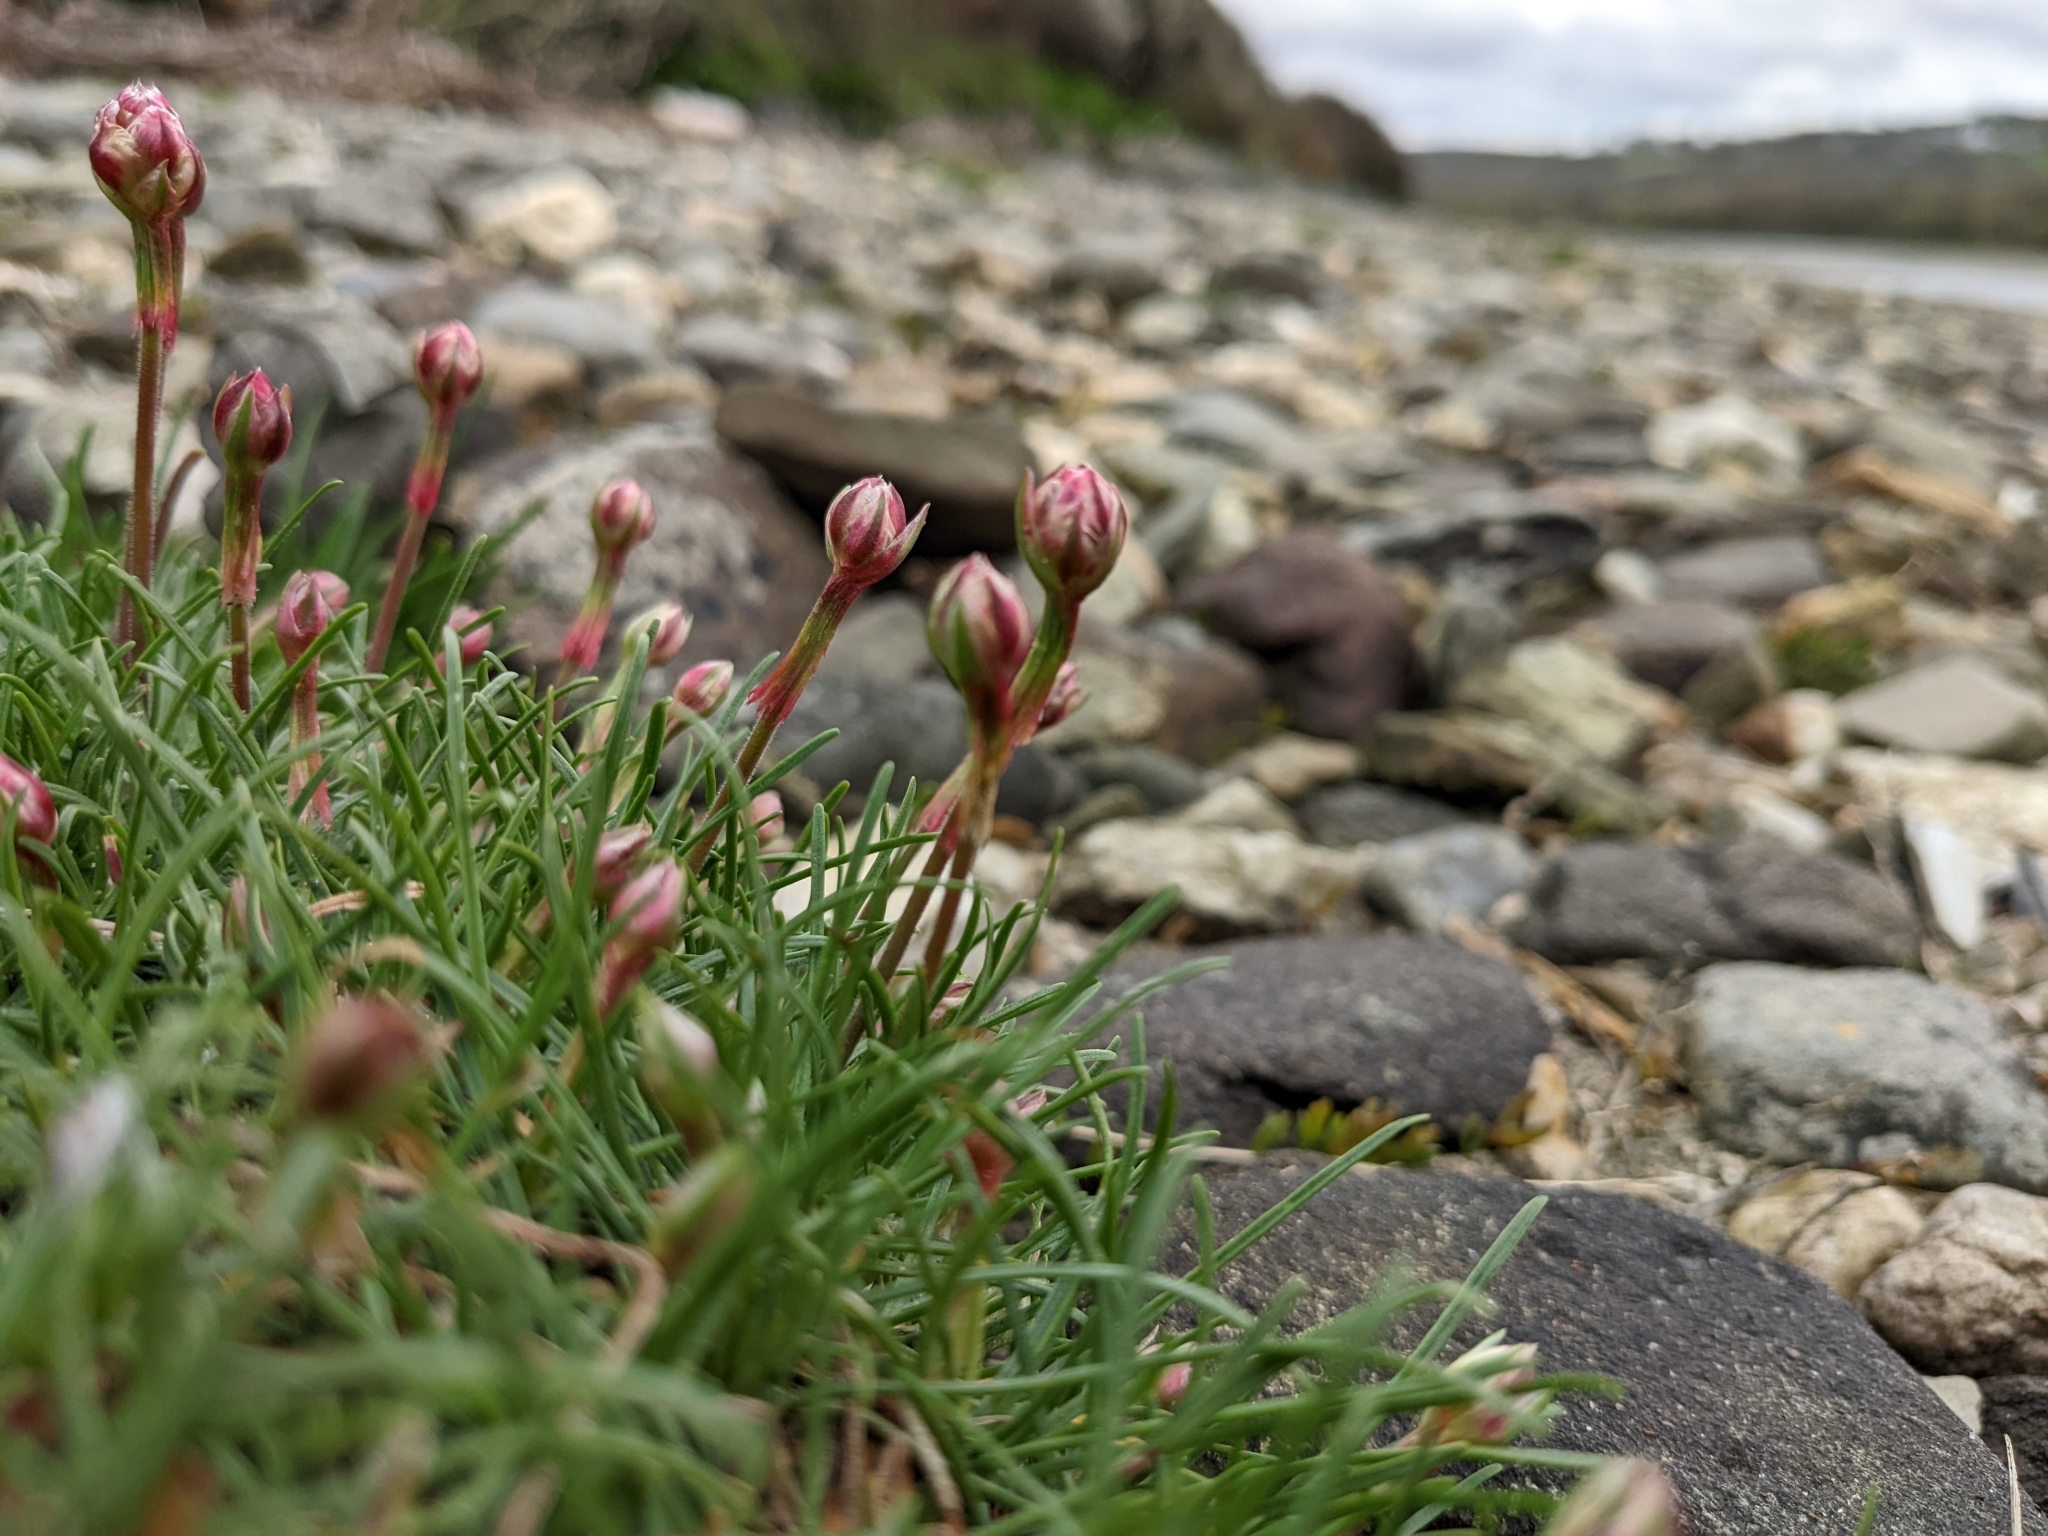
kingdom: Plantae
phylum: Tracheophyta
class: Magnoliopsida
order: Caryophyllales
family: Plumbaginaceae
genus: Armeria
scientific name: Armeria maritima
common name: Thrift
